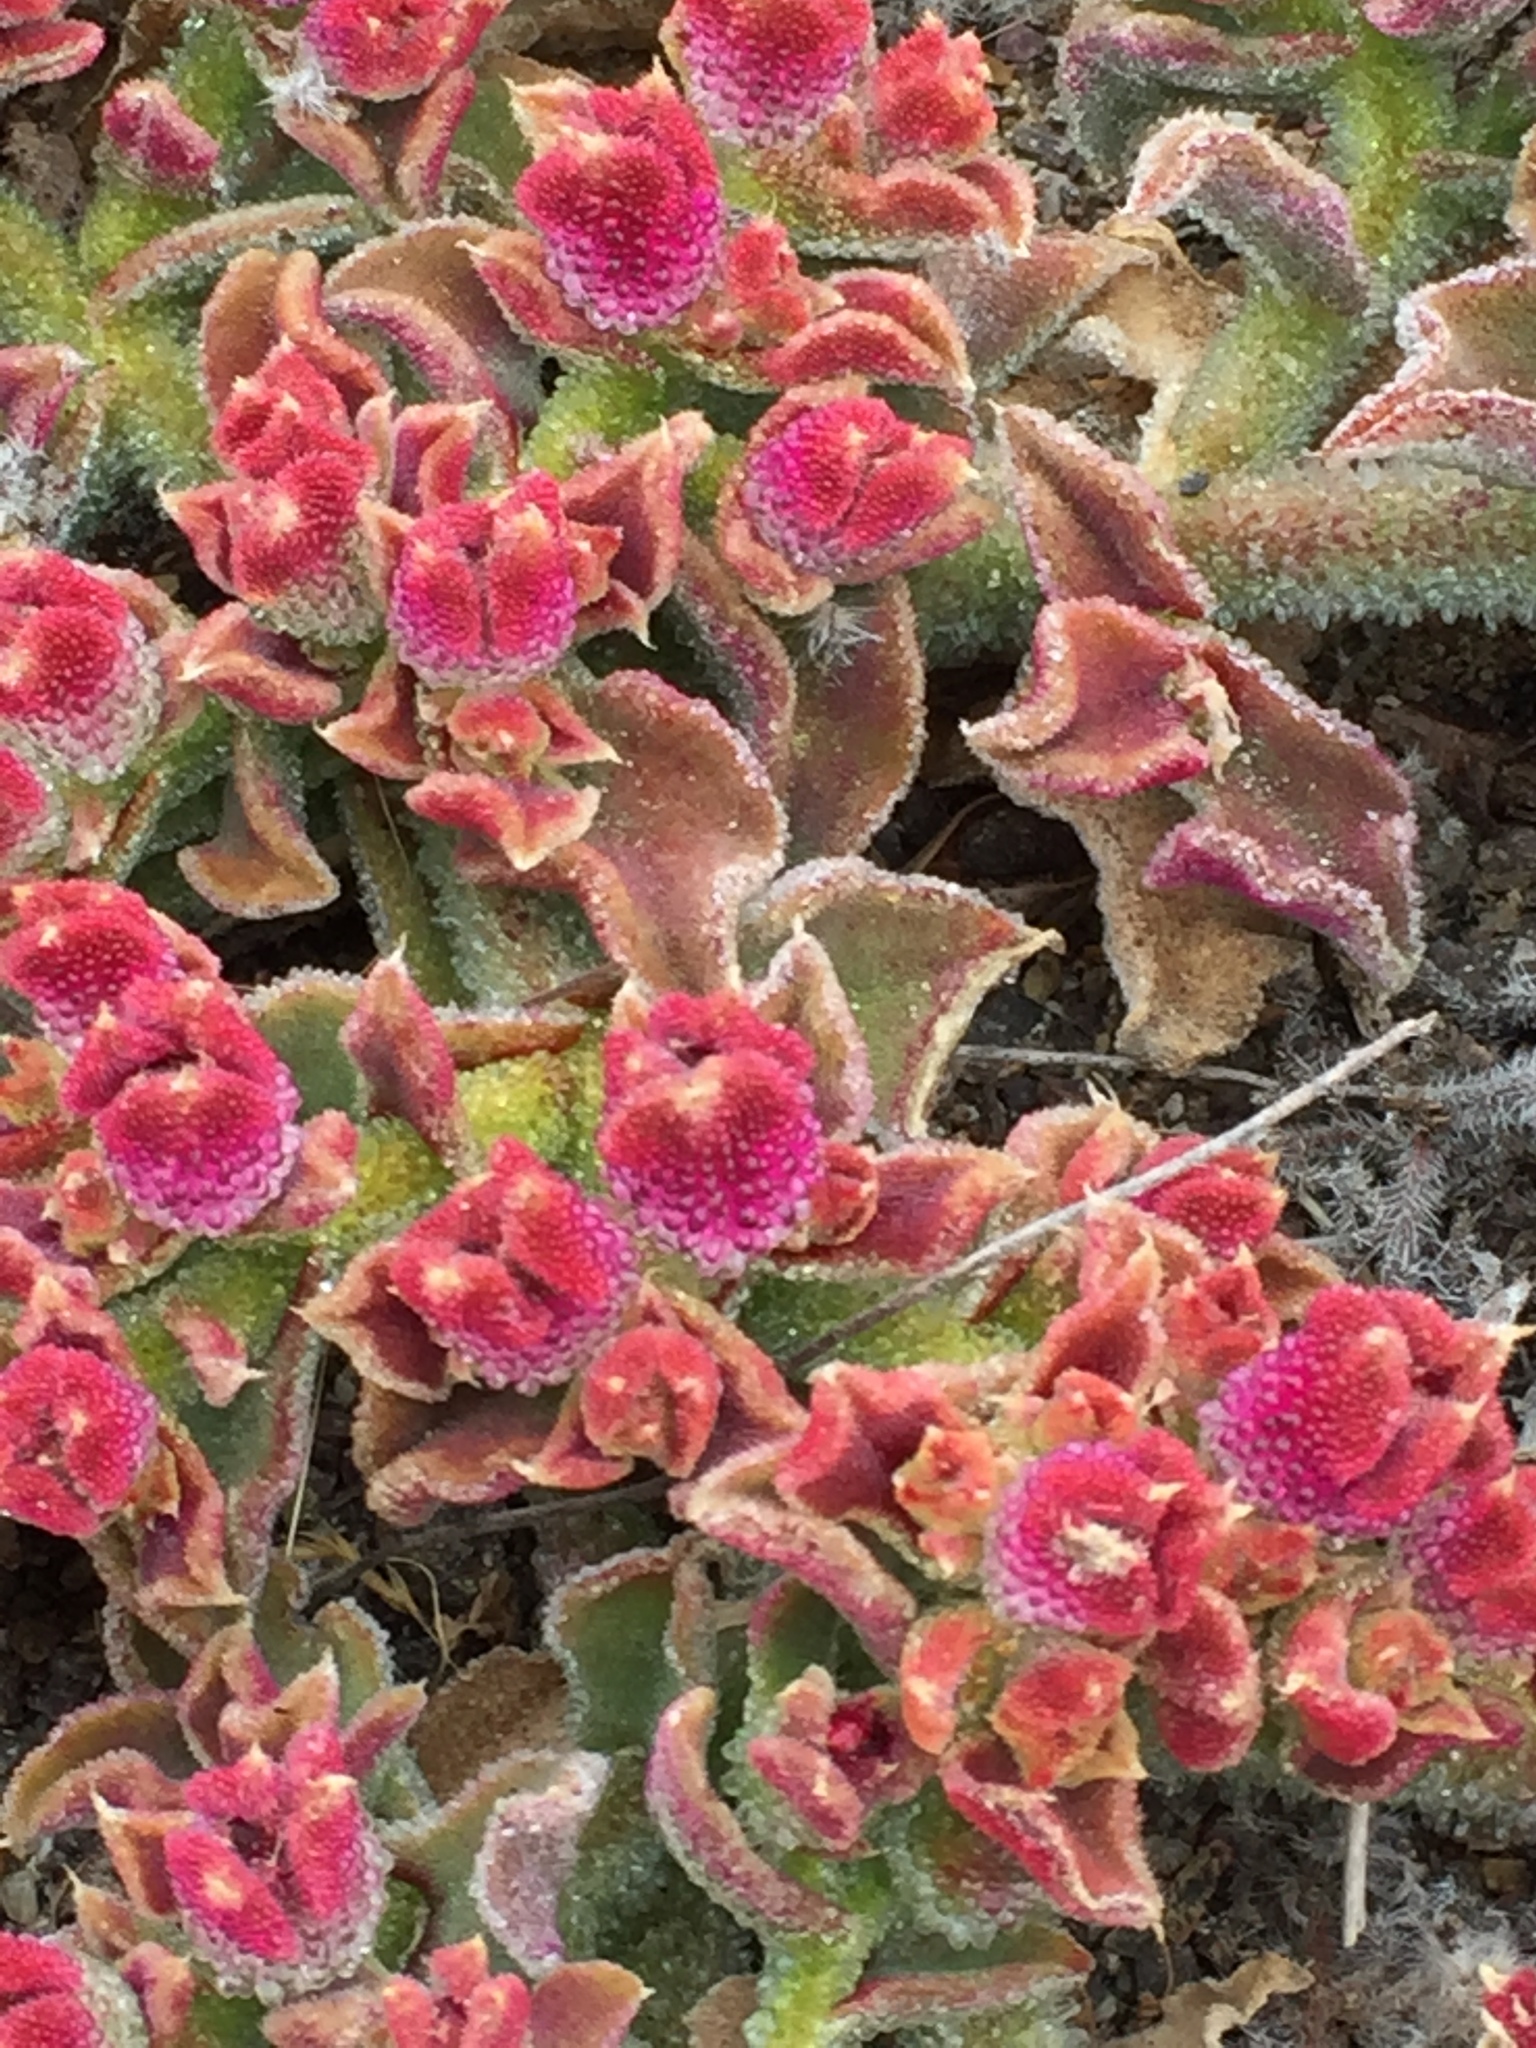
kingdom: Plantae
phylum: Tracheophyta
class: Magnoliopsida
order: Caryophyllales
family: Aizoaceae
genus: Mesembryanthemum
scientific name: Mesembryanthemum crystallinum
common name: Common iceplant
